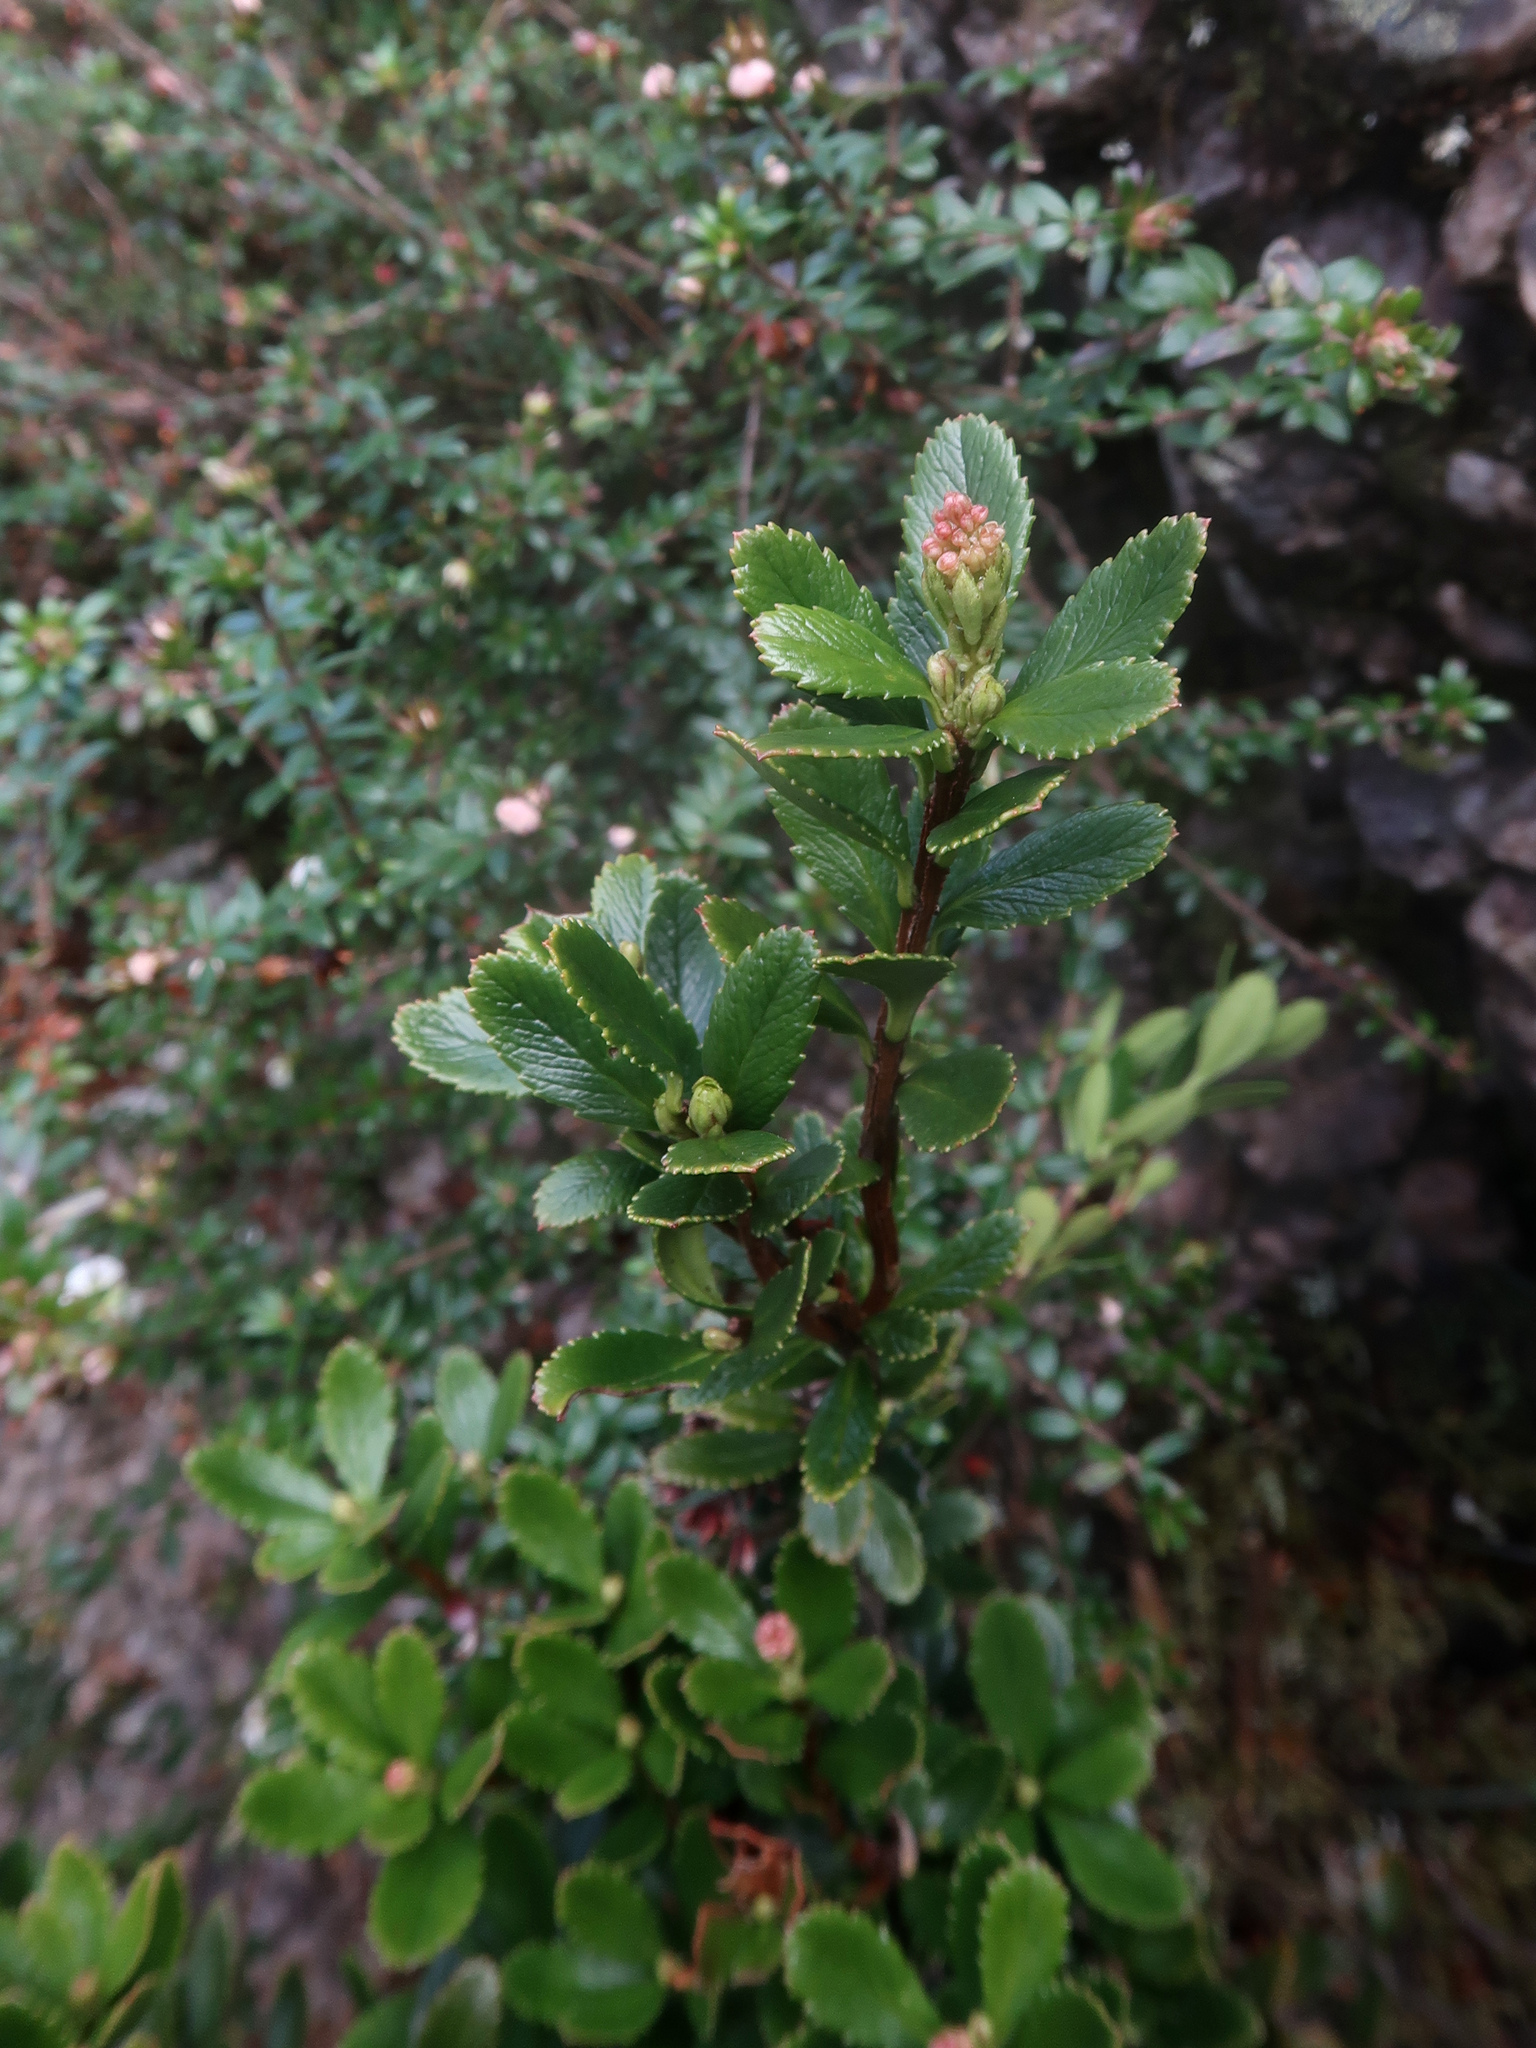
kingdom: Plantae
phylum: Tracheophyta
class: Magnoliopsida
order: Saxifragales
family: Tetracarpaeaceae
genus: Tetracarpaea
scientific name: Tetracarpaea tasmanica
